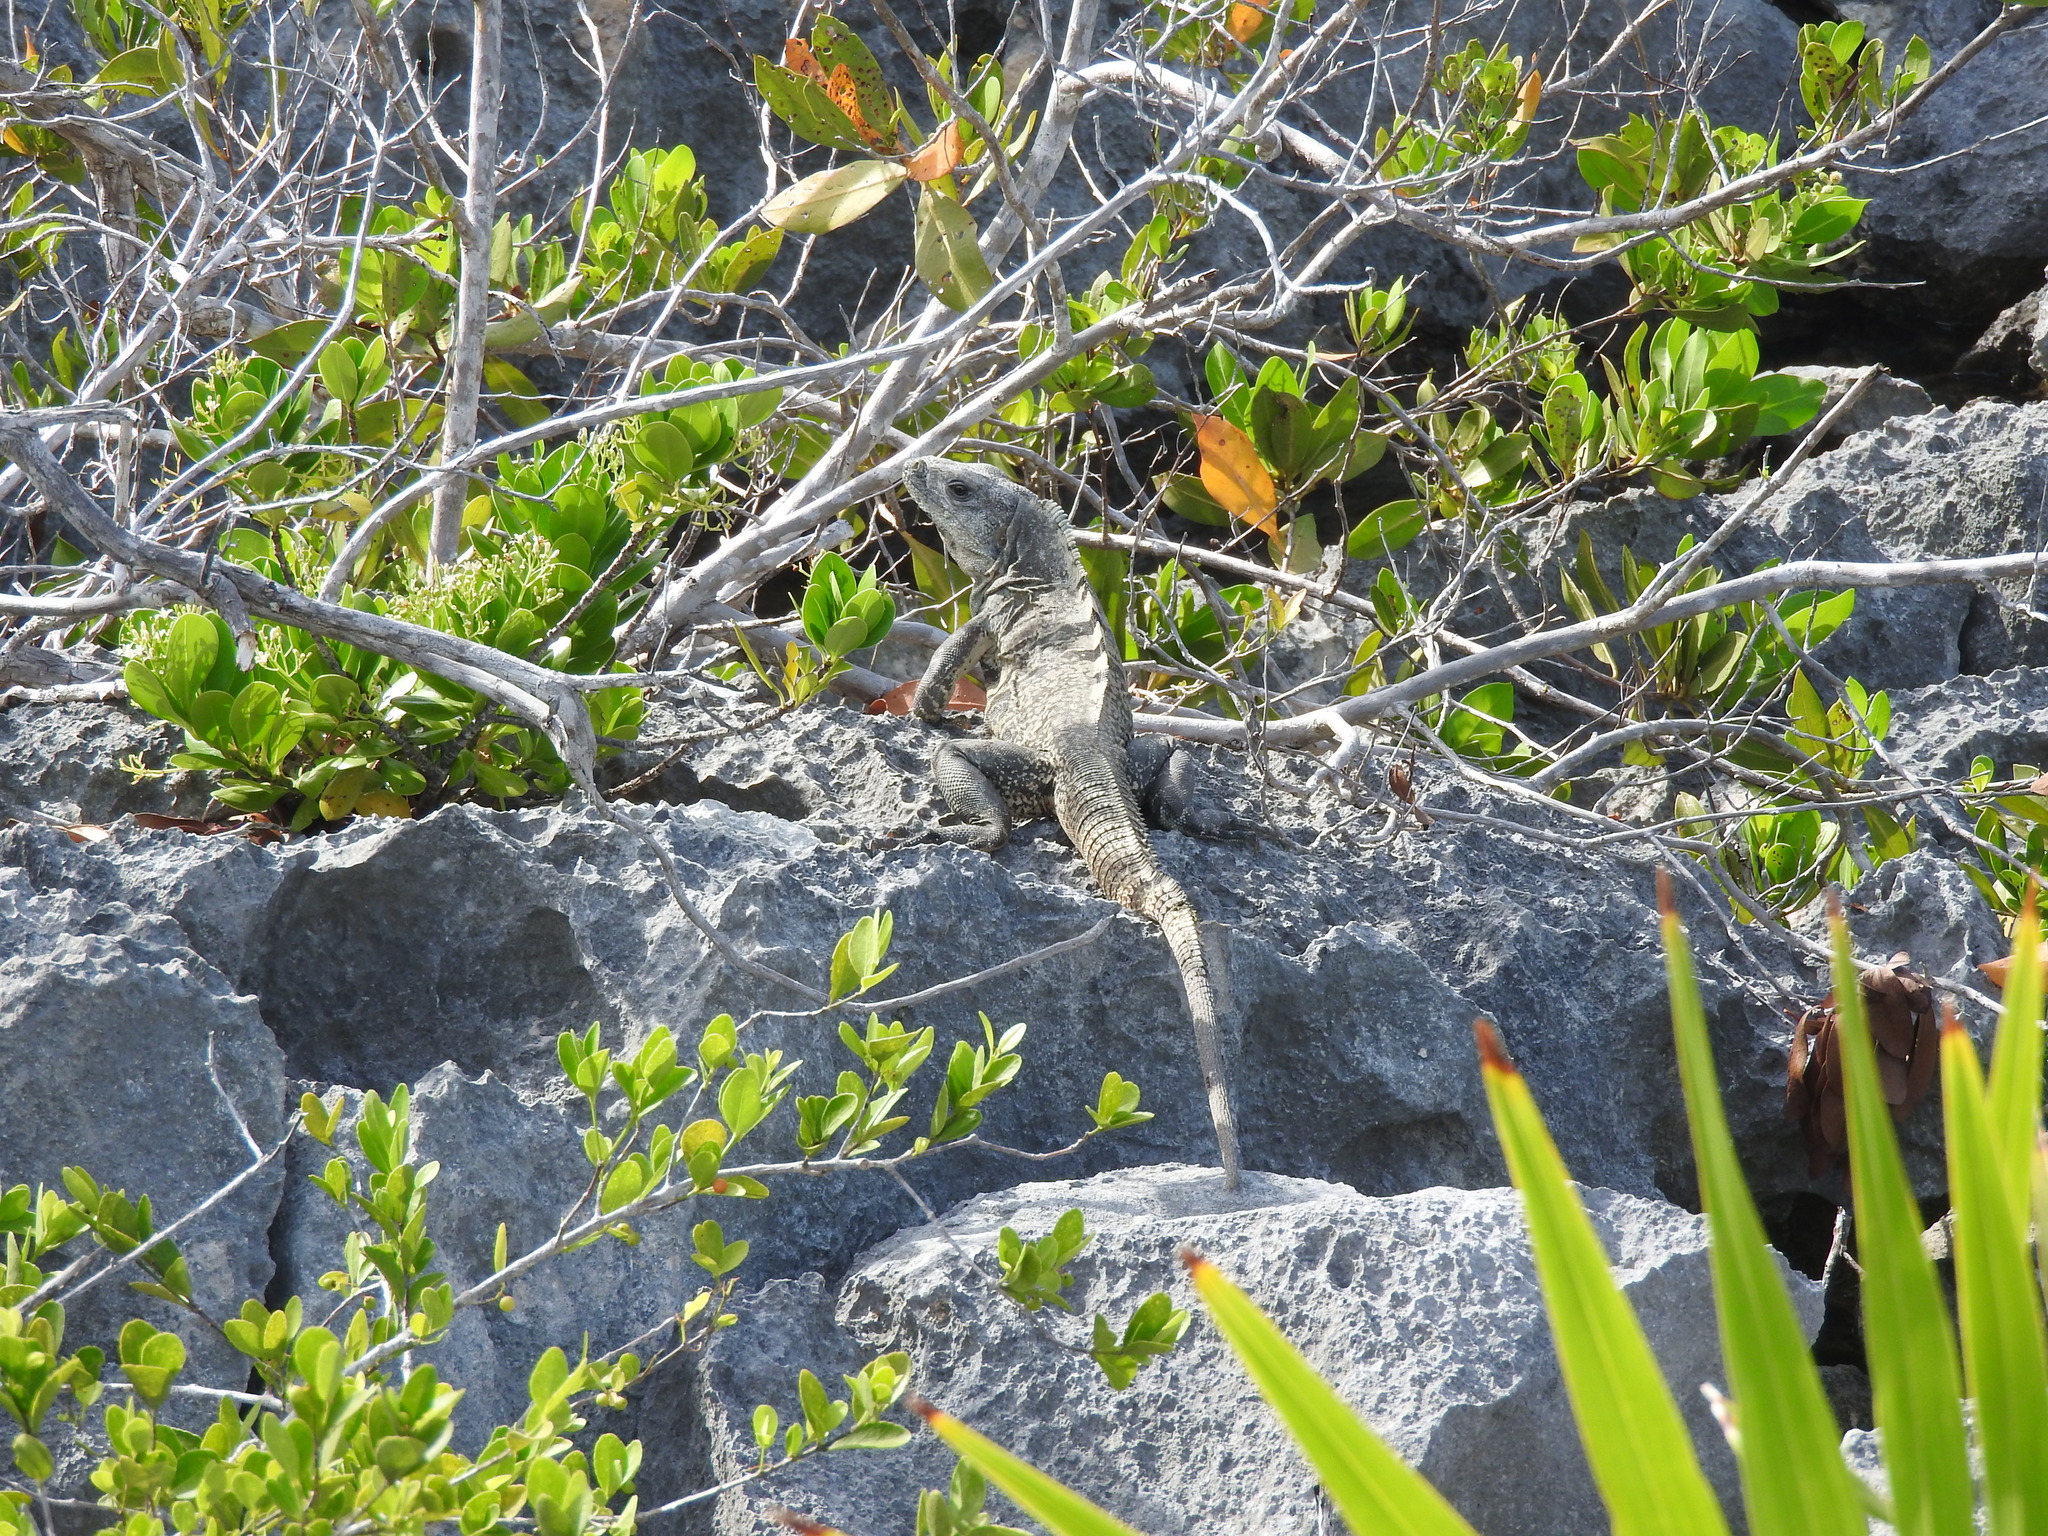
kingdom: Animalia
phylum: Chordata
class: Squamata
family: Iguanidae
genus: Ctenosaura
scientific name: Ctenosaura similis
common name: Black spiny-tailed iguana
